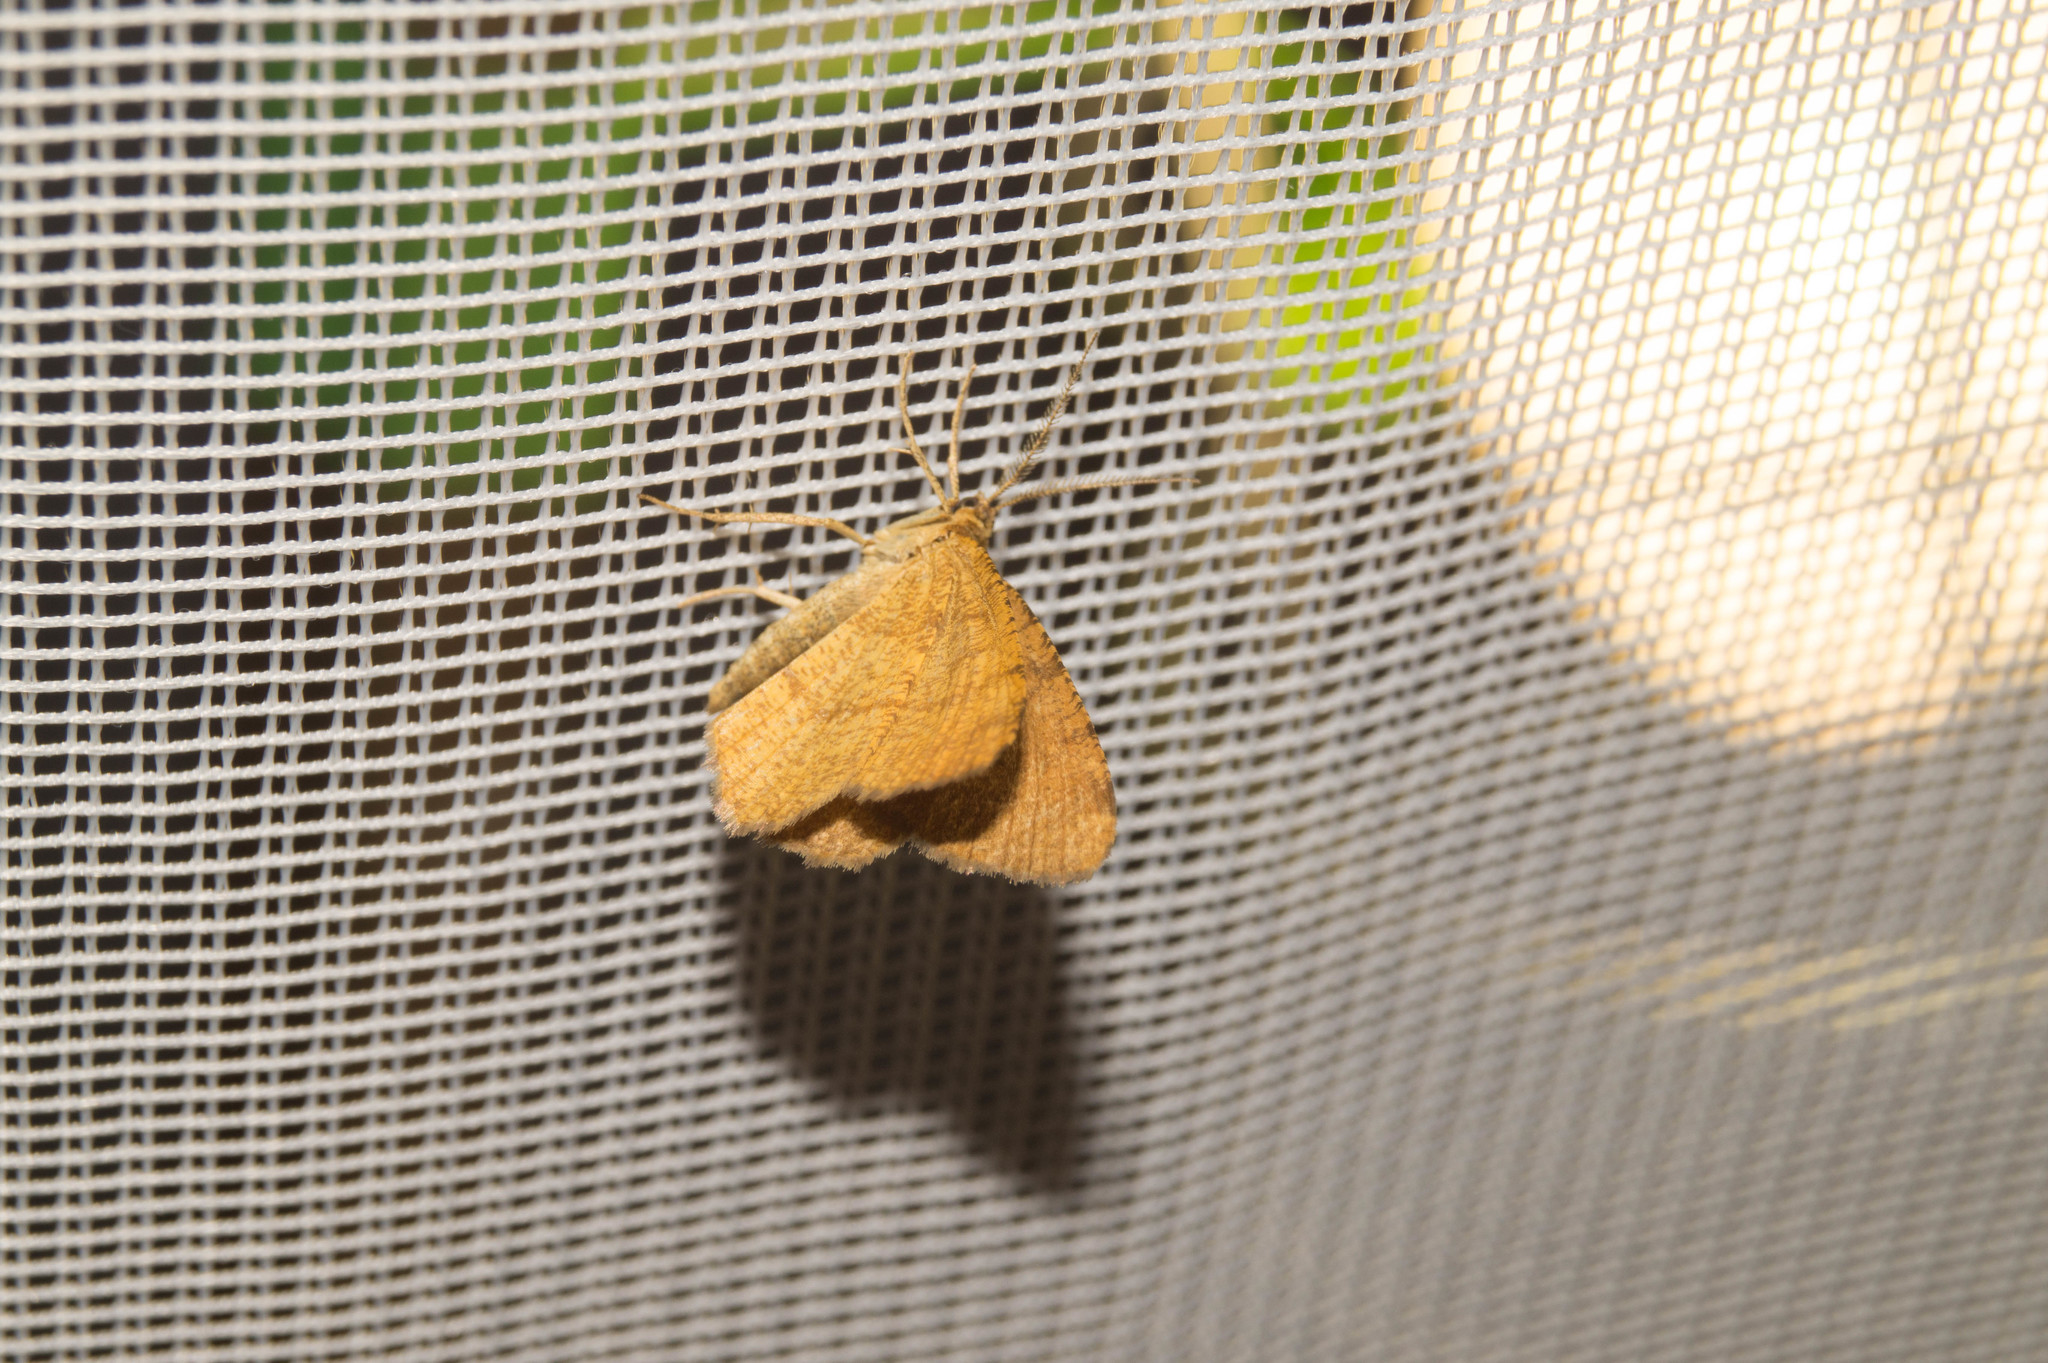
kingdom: Animalia
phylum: Arthropoda
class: Insecta
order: Lepidoptera
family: Geometridae
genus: Macaria
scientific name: Macaria brunneata
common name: Rannoch looper
